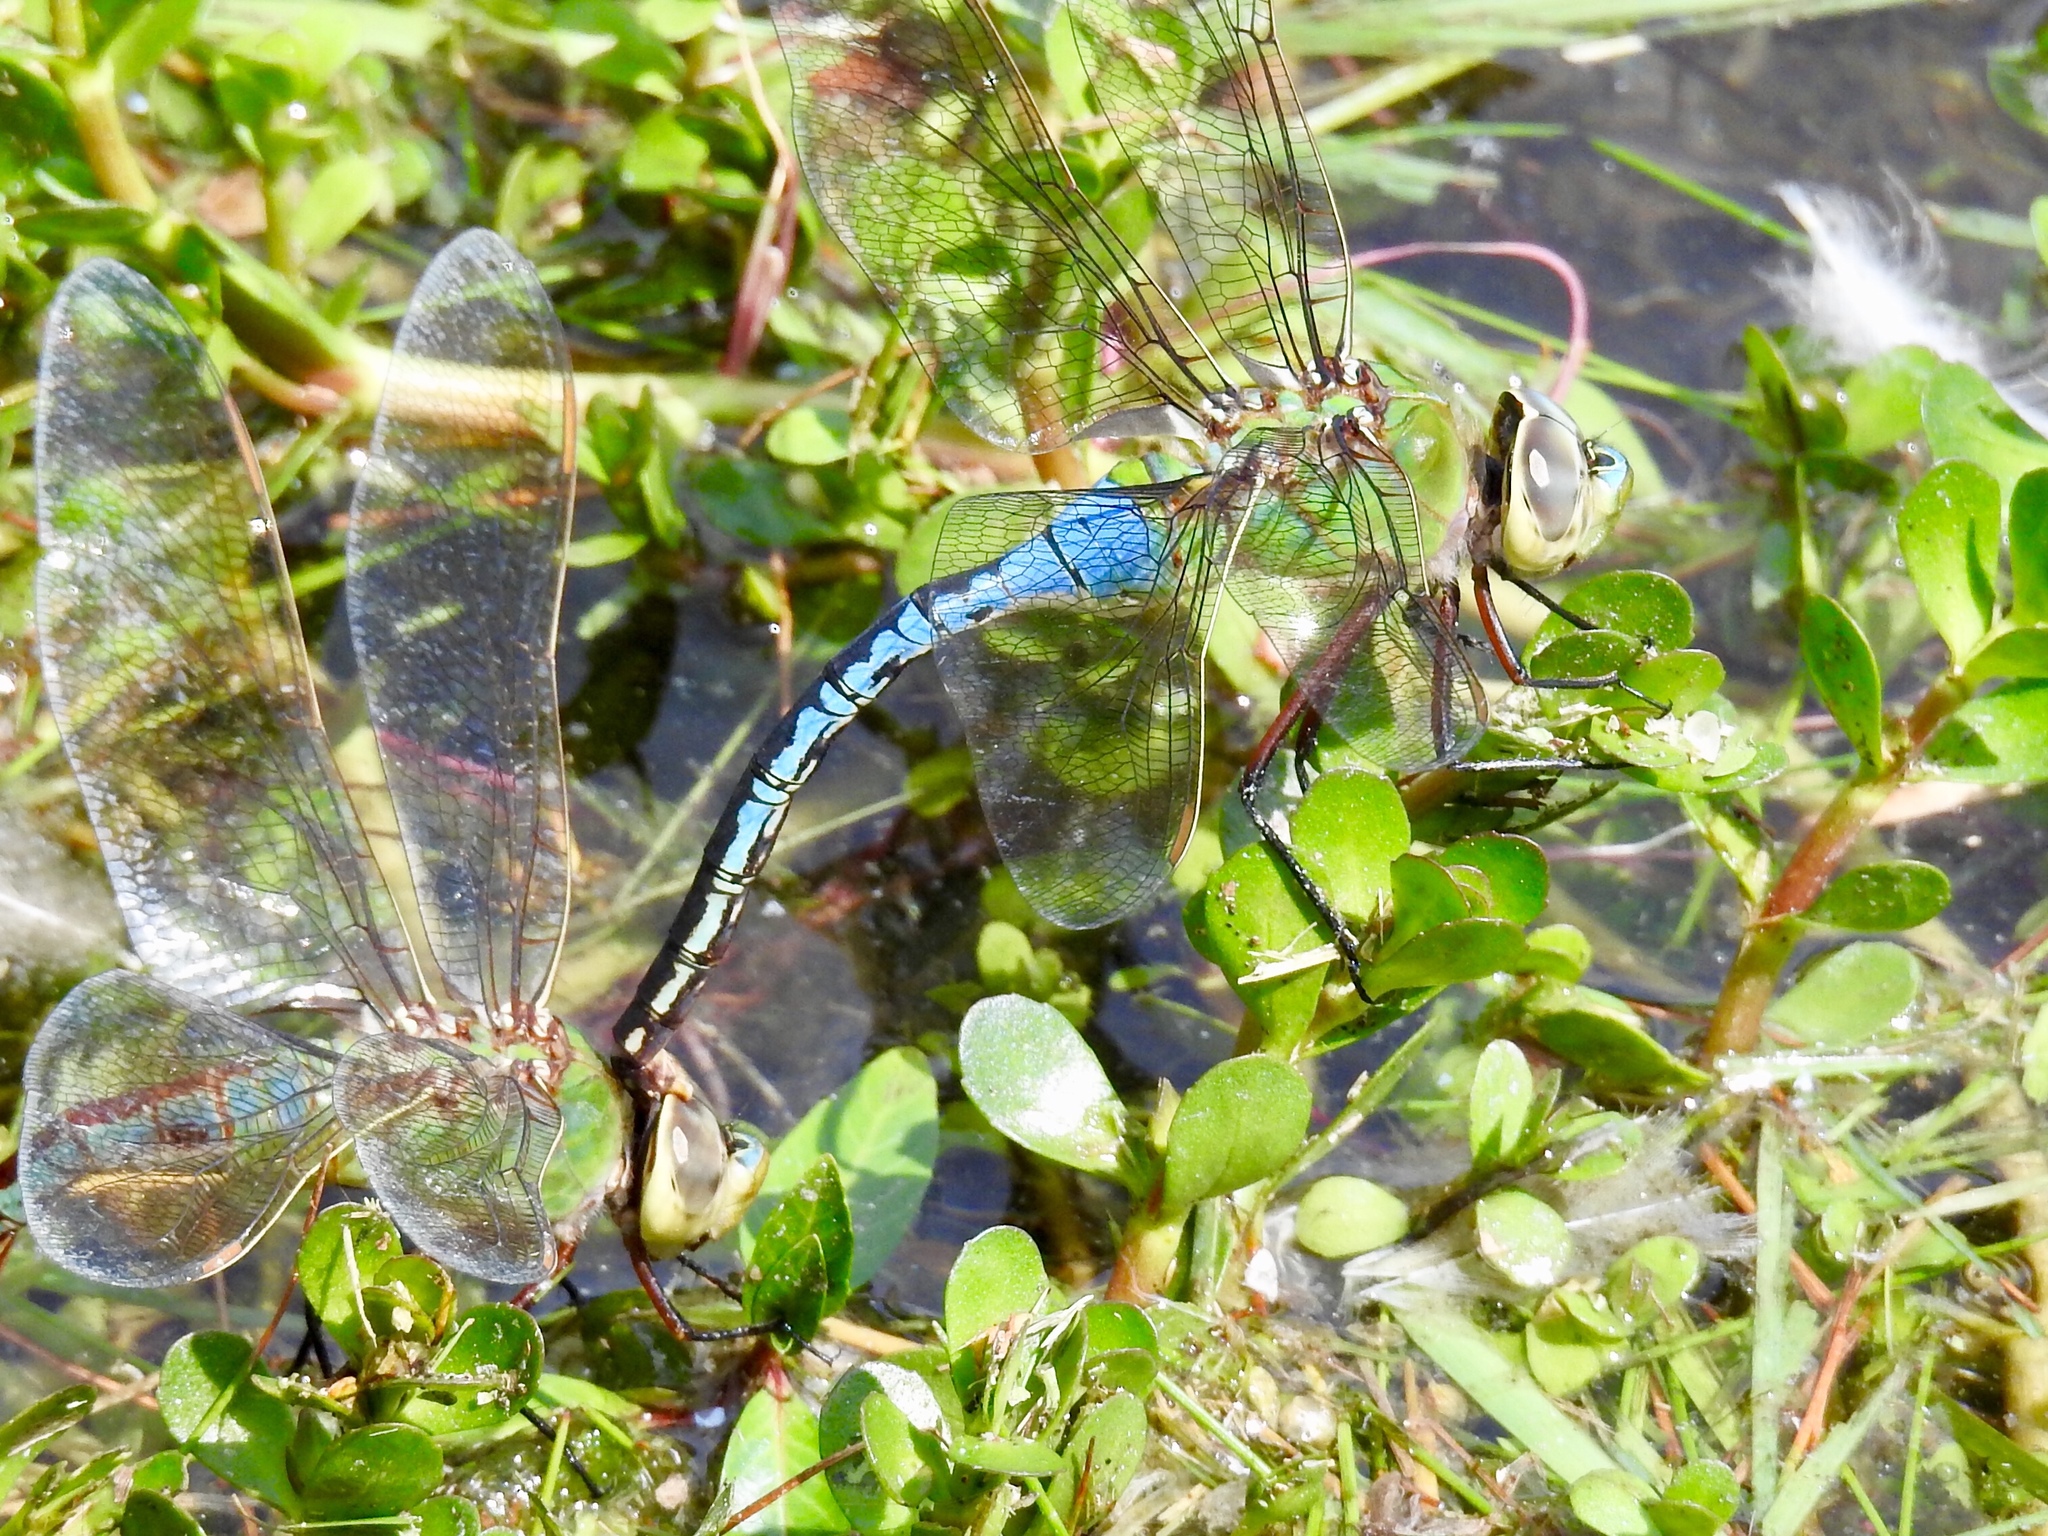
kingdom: Animalia
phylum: Arthropoda
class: Insecta
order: Odonata
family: Aeshnidae
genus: Anax
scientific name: Anax junius
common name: Common green darner
